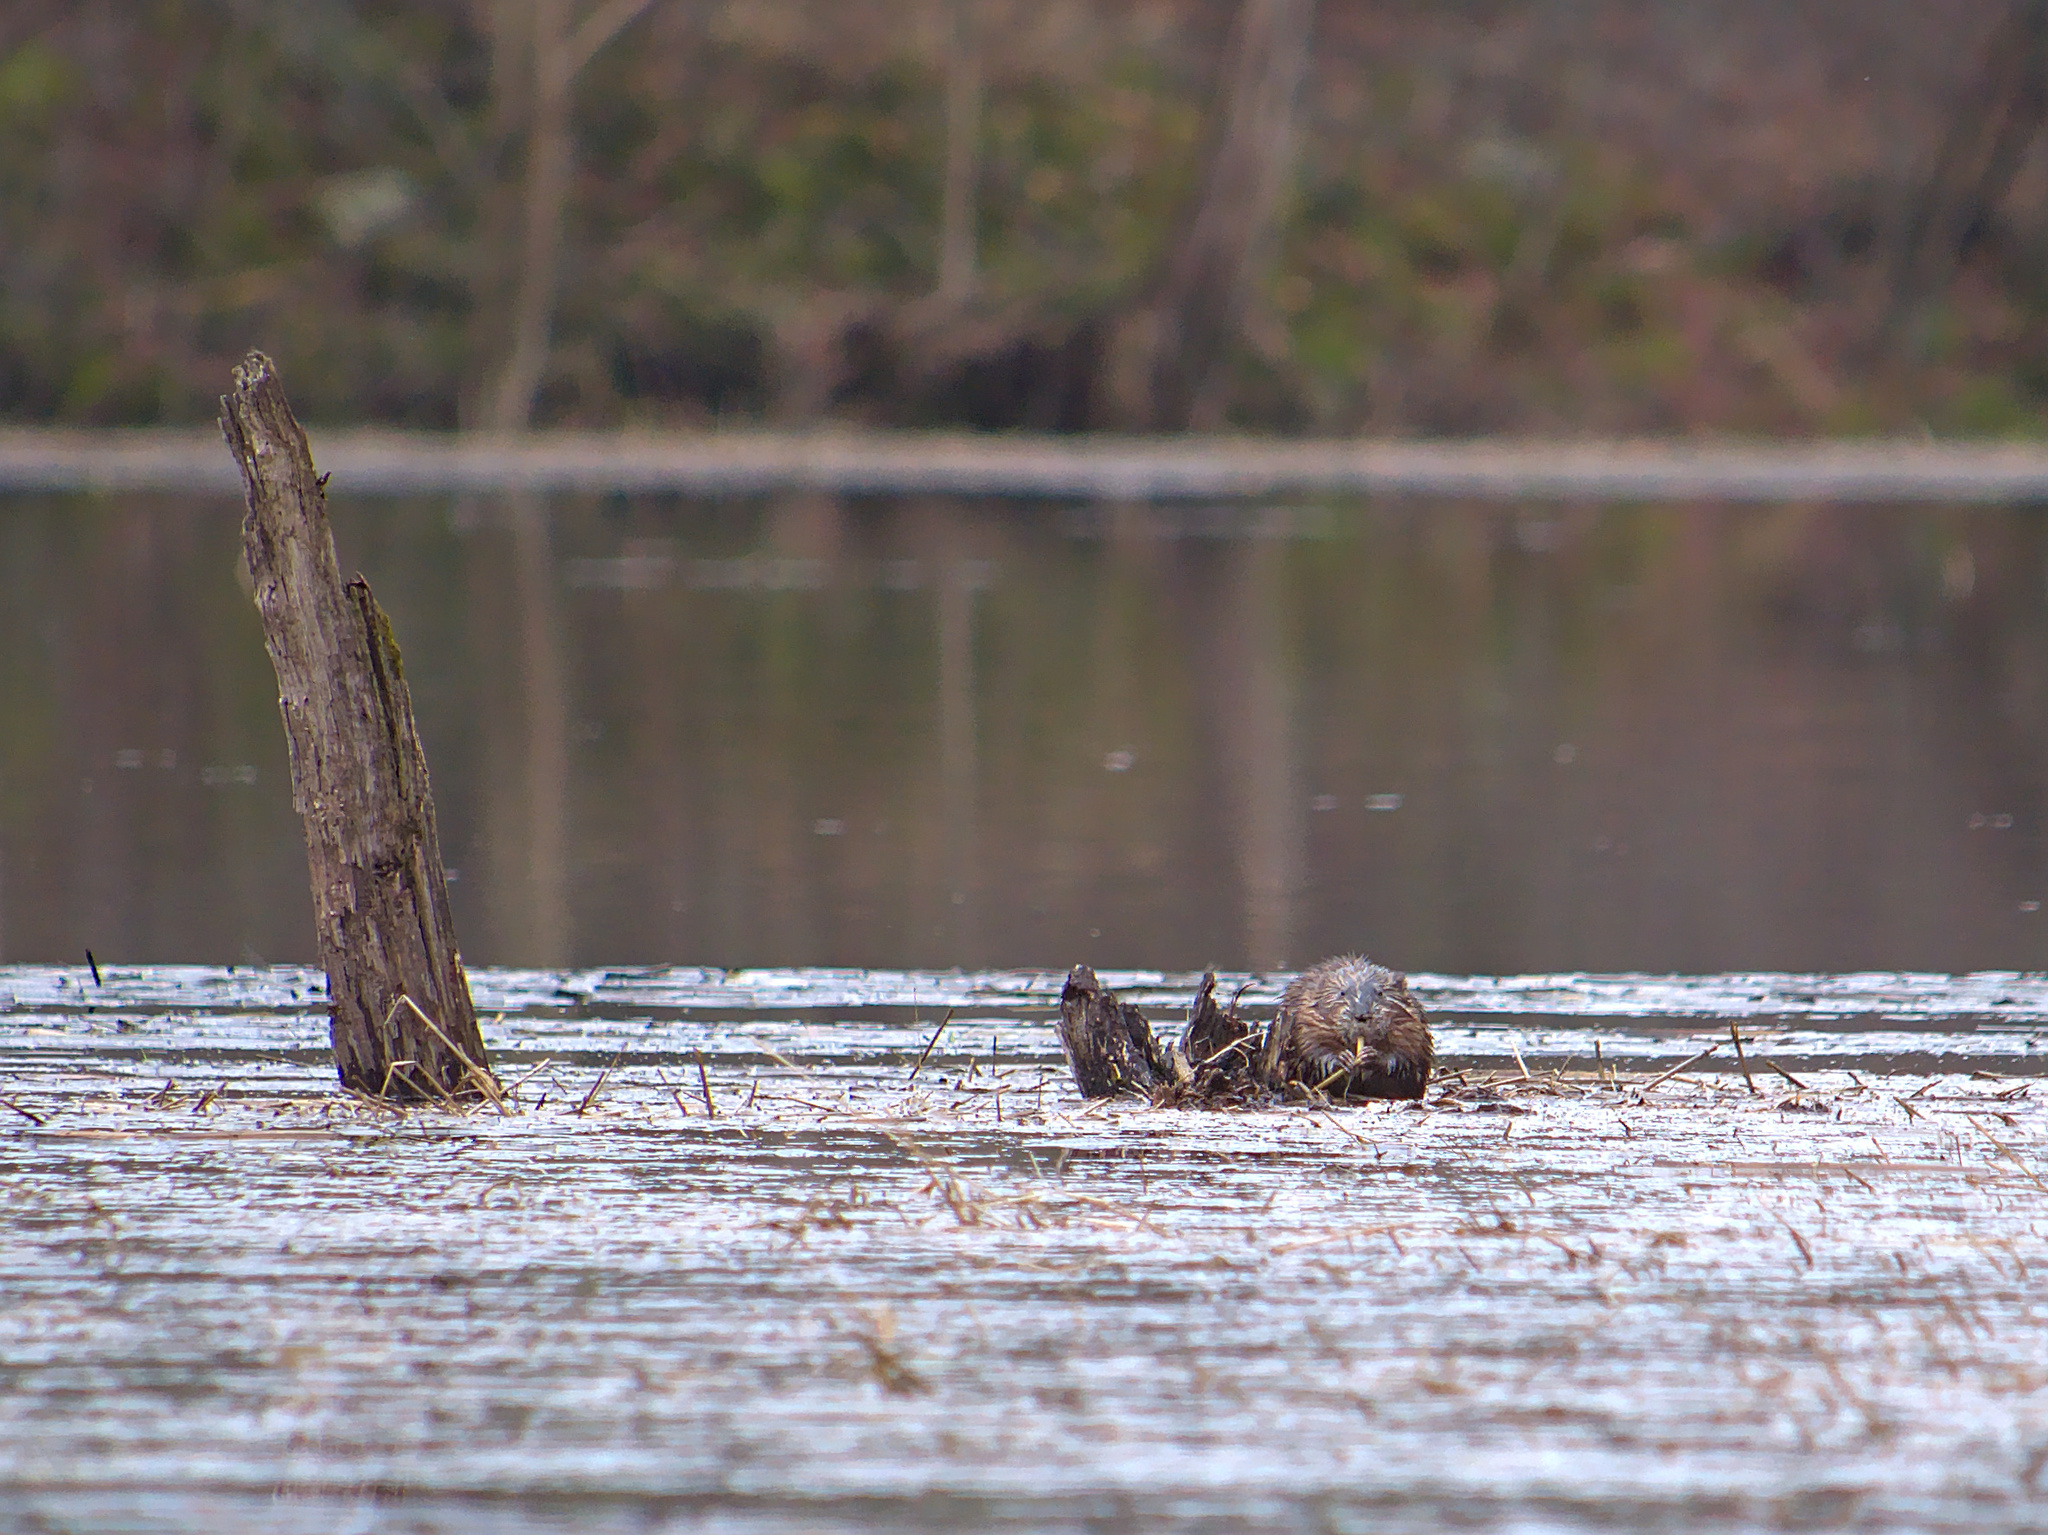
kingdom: Animalia
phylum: Chordata
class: Mammalia
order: Rodentia
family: Cricetidae
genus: Ondatra
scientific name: Ondatra zibethicus
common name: Muskrat
